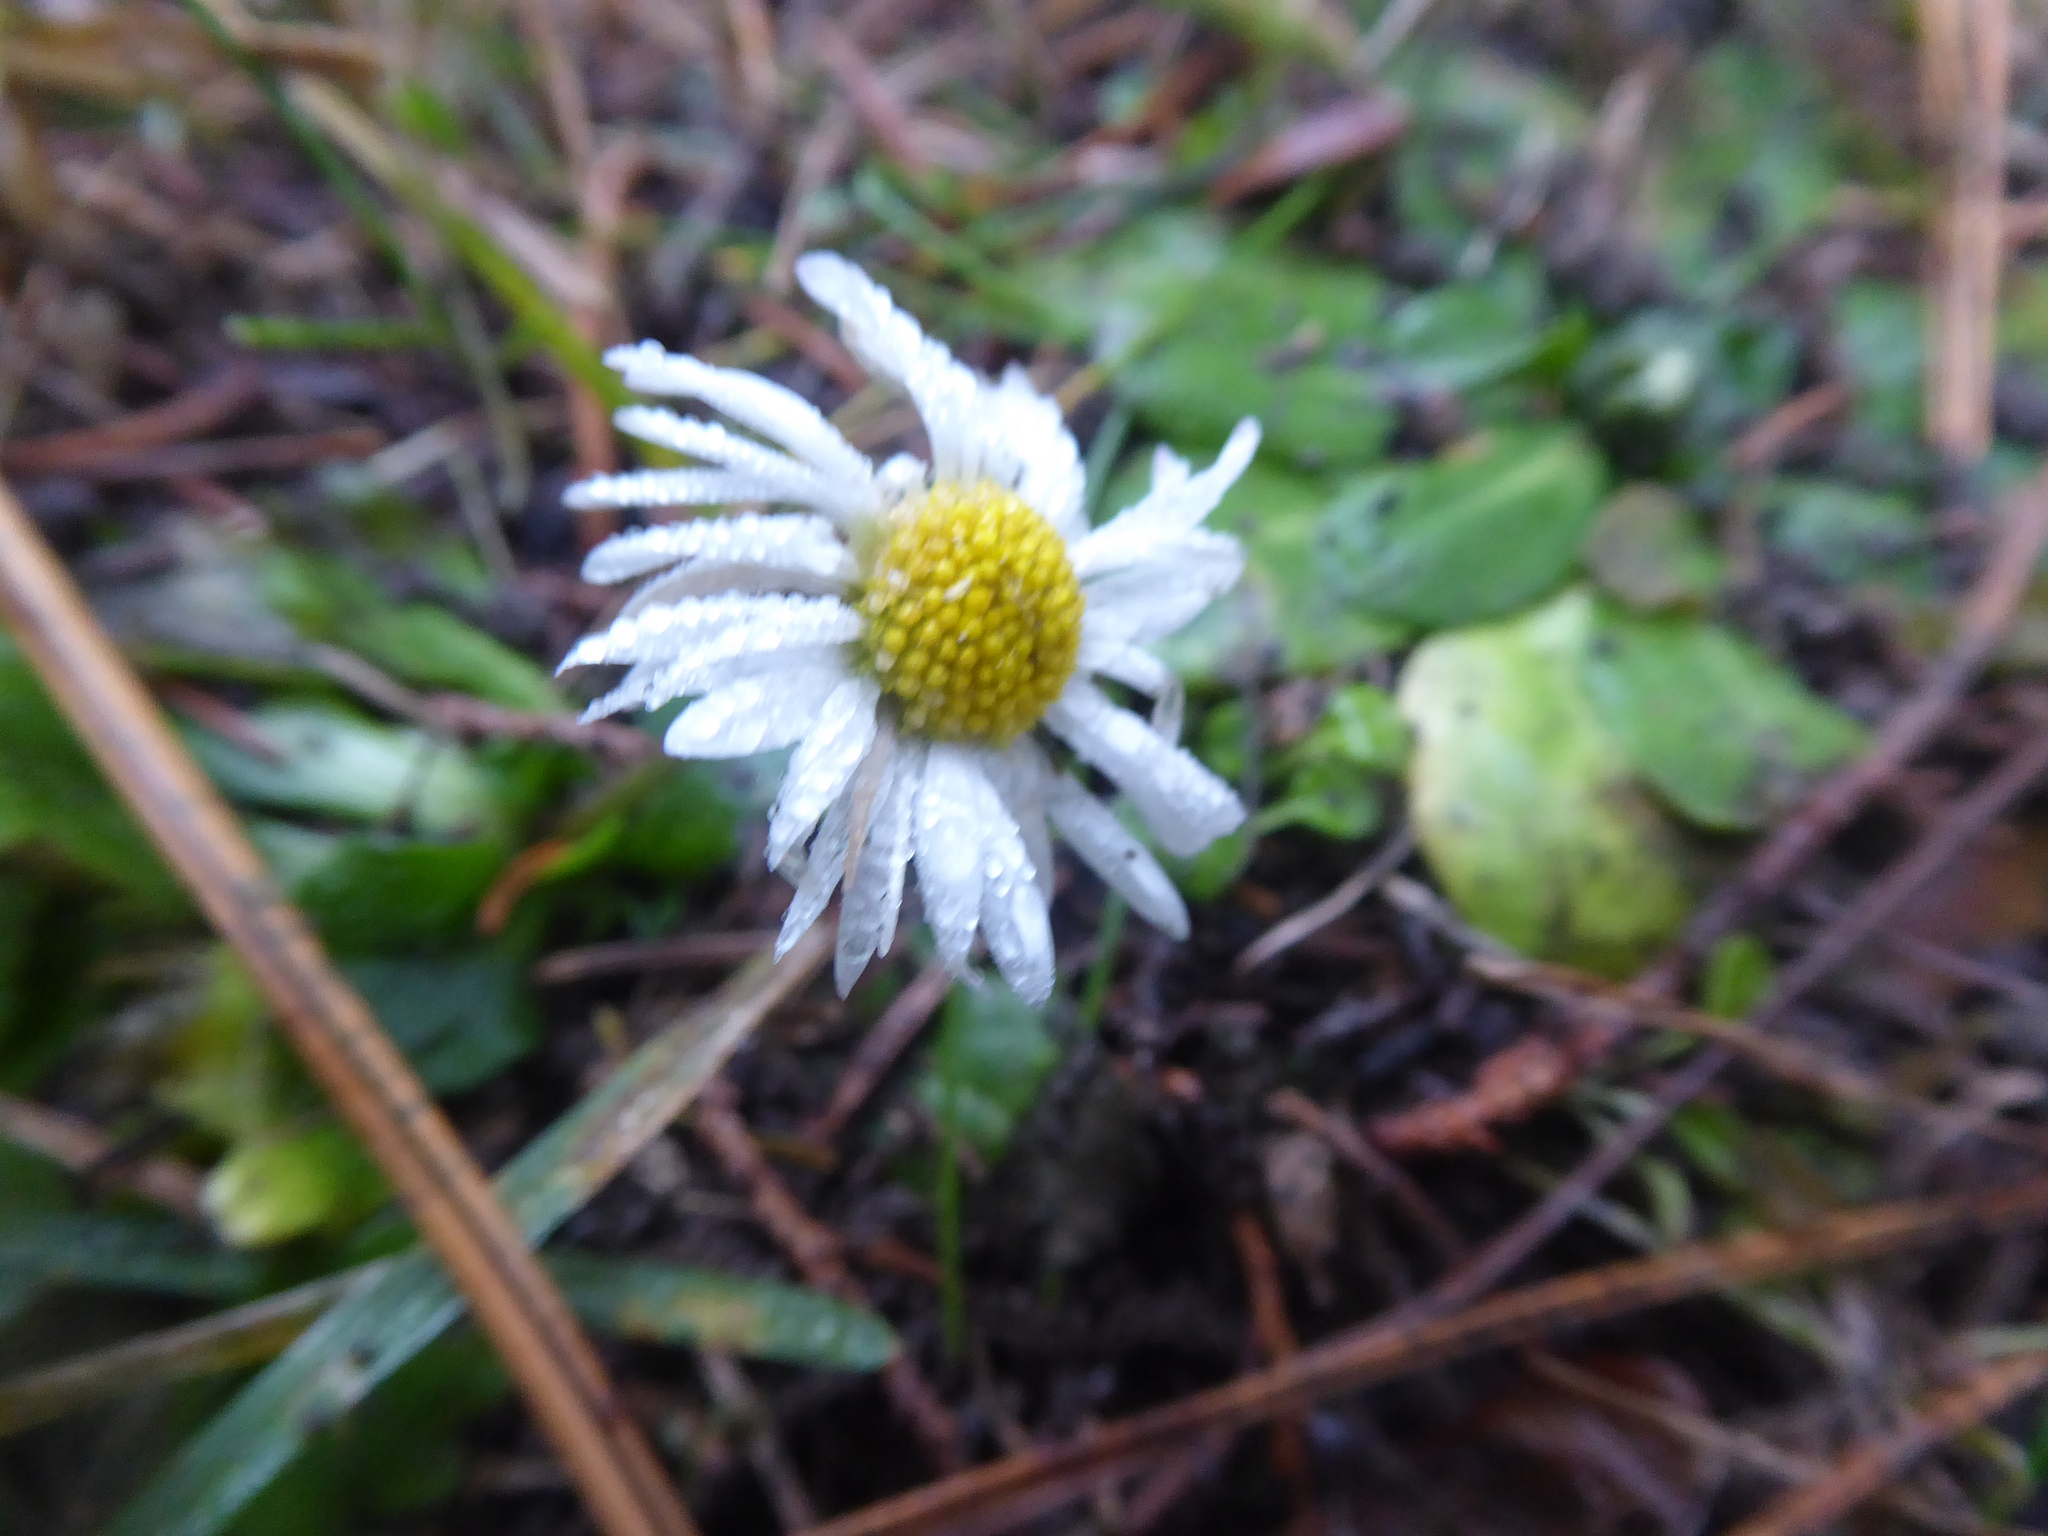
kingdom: Plantae
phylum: Tracheophyta
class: Magnoliopsida
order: Asterales
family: Asteraceae
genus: Bellis
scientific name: Bellis perennis
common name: Lawndaisy
